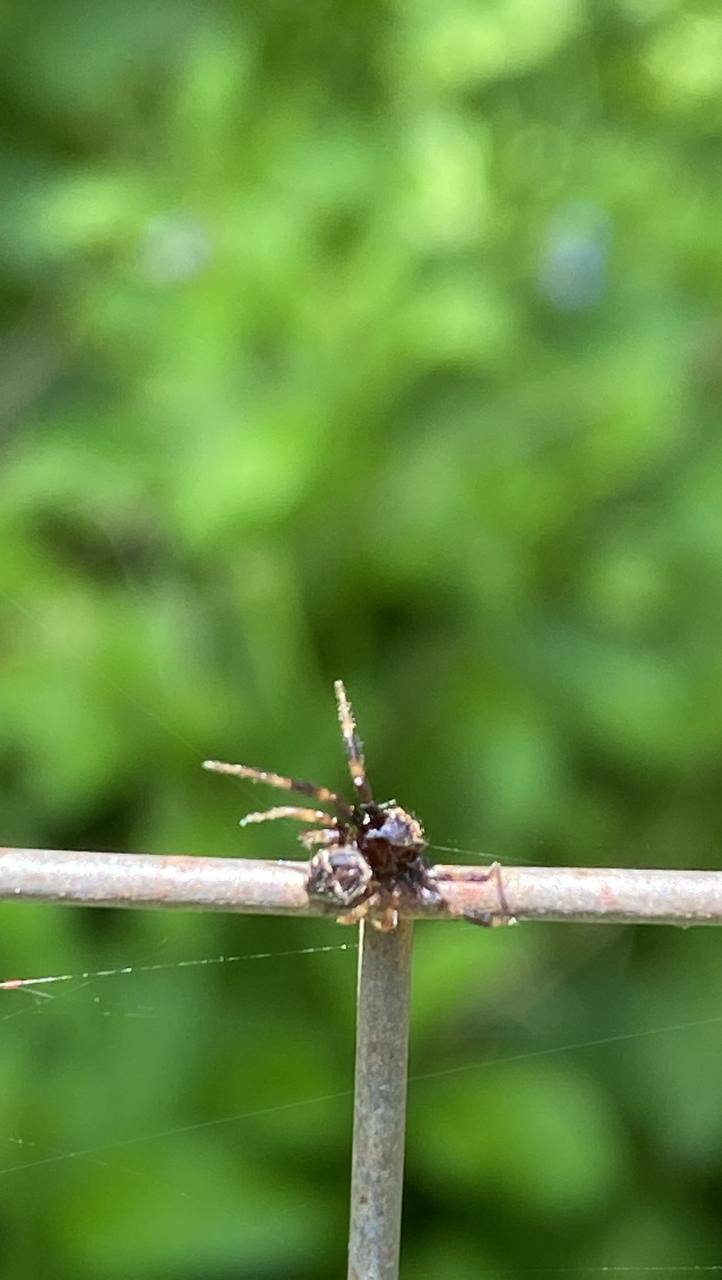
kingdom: Animalia
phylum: Arthropoda
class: Arachnida
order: Araneae
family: Thomisidae
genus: Synema
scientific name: Synema globosum
